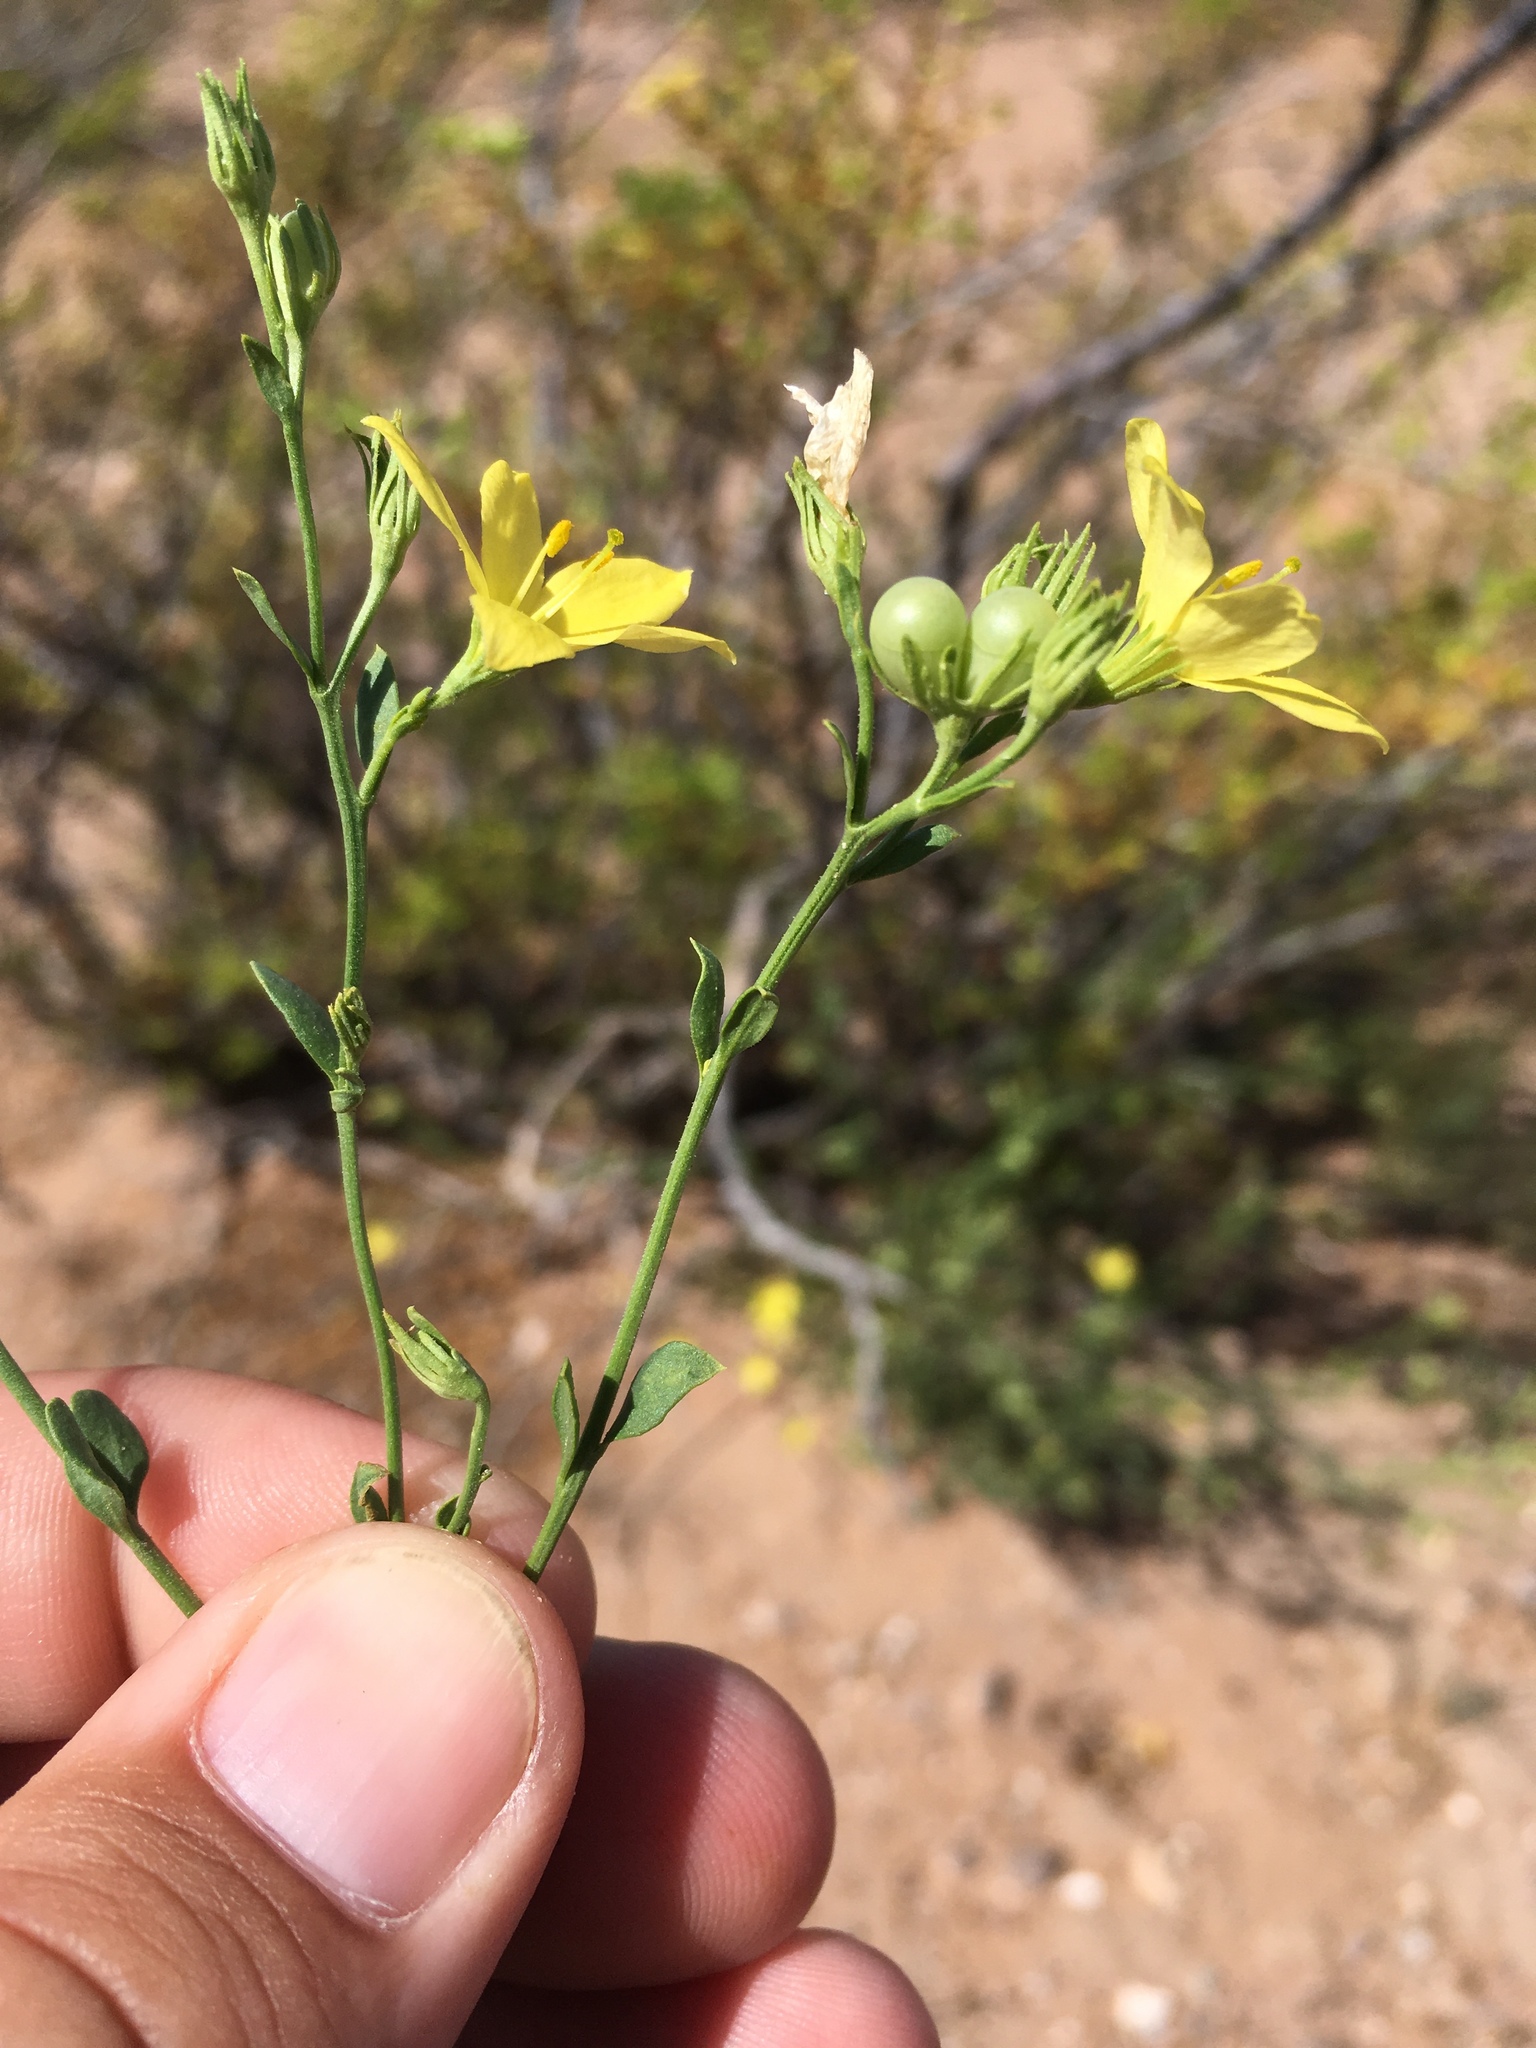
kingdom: Plantae
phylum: Tracheophyta
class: Magnoliopsida
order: Lamiales
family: Oleaceae
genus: Menodora
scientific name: Menodora scabra
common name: Rough menodora
